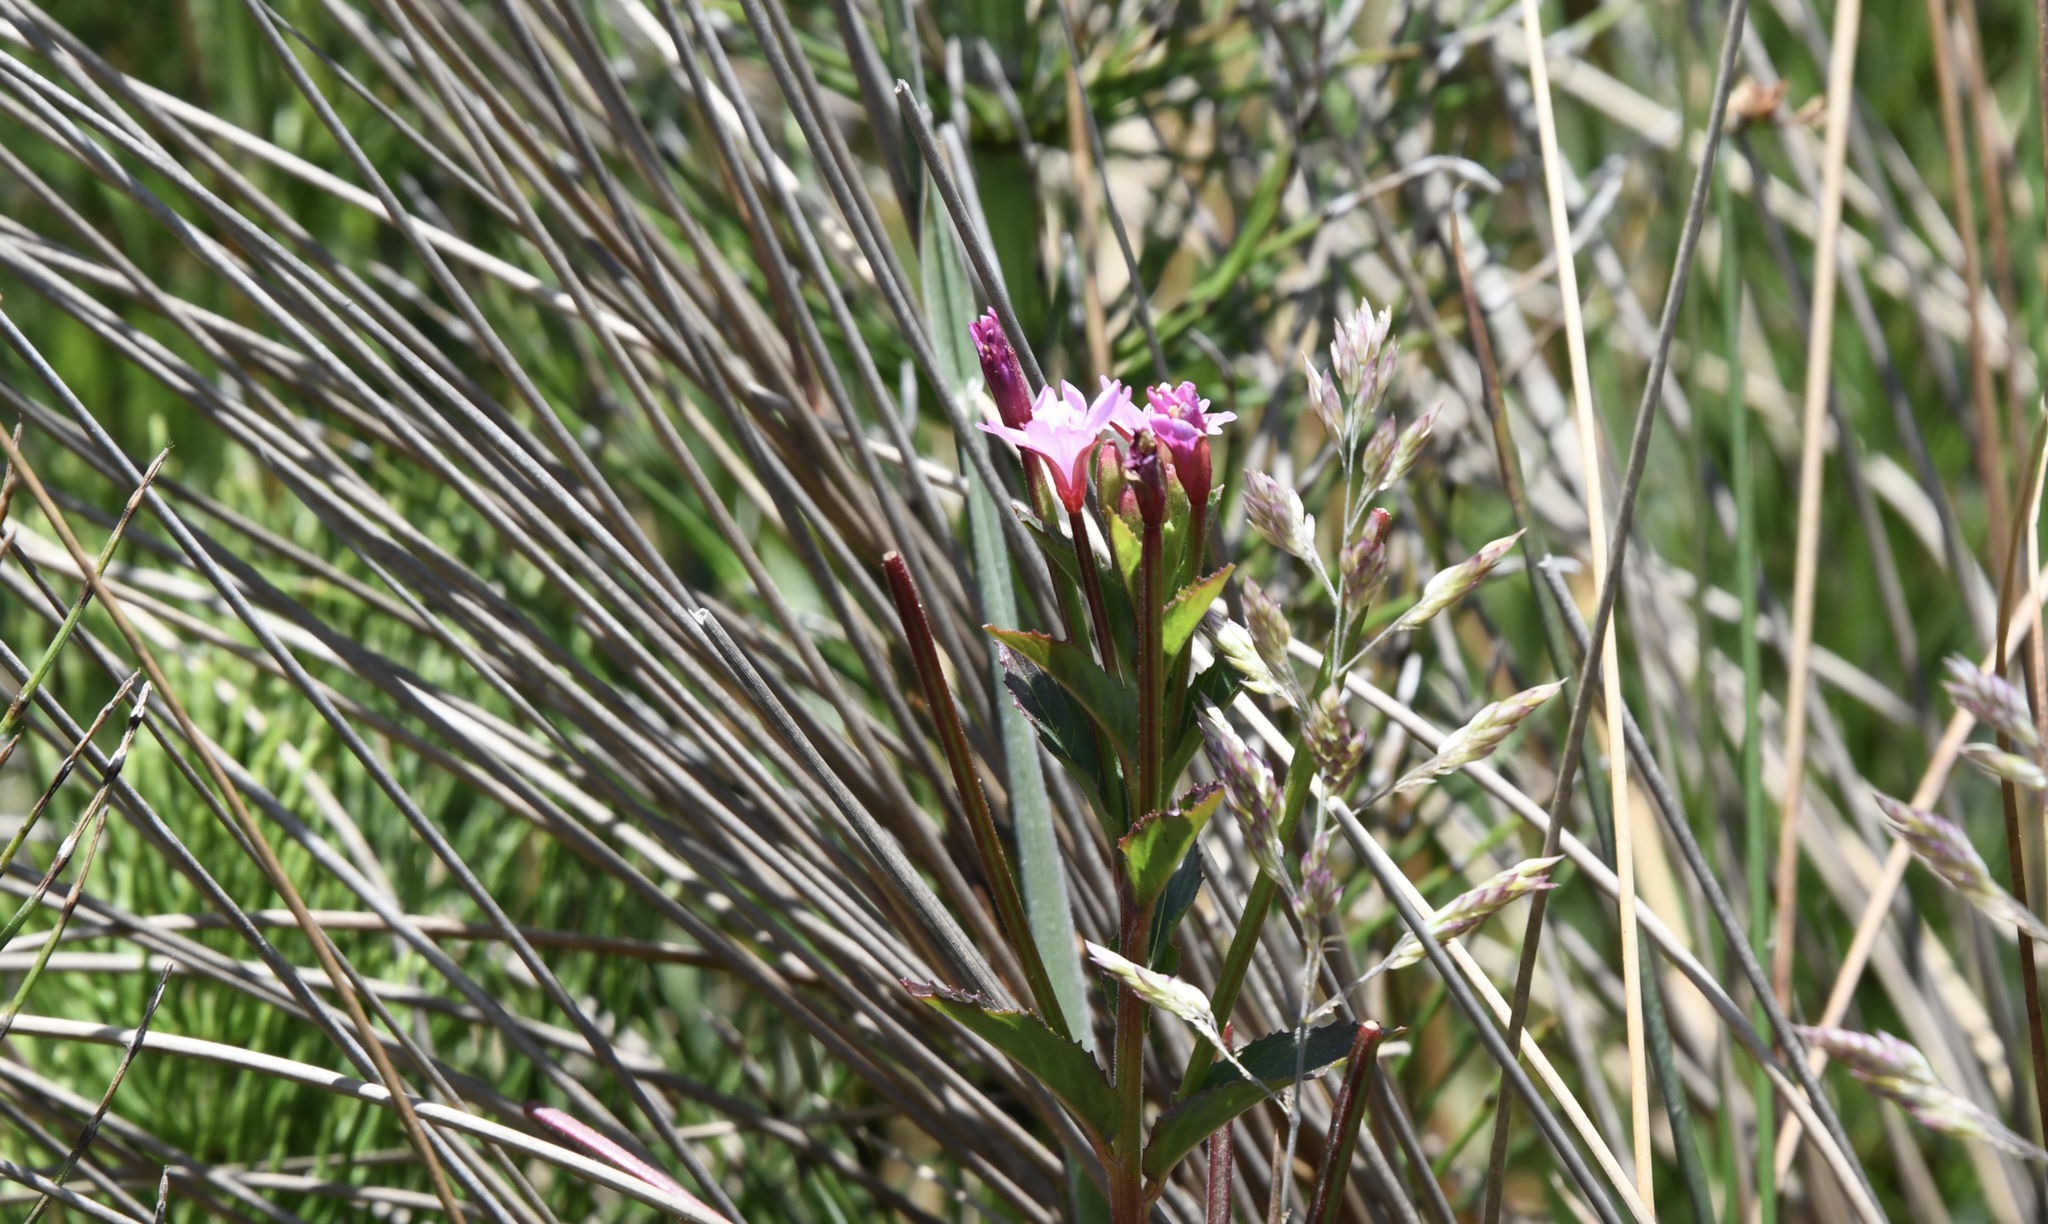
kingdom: Plantae
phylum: Tracheophyta
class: Magnoliopsida
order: Myrtales
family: Onagraceae
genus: Epilobium
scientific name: Epilobium ciliatum
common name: American willowherb
